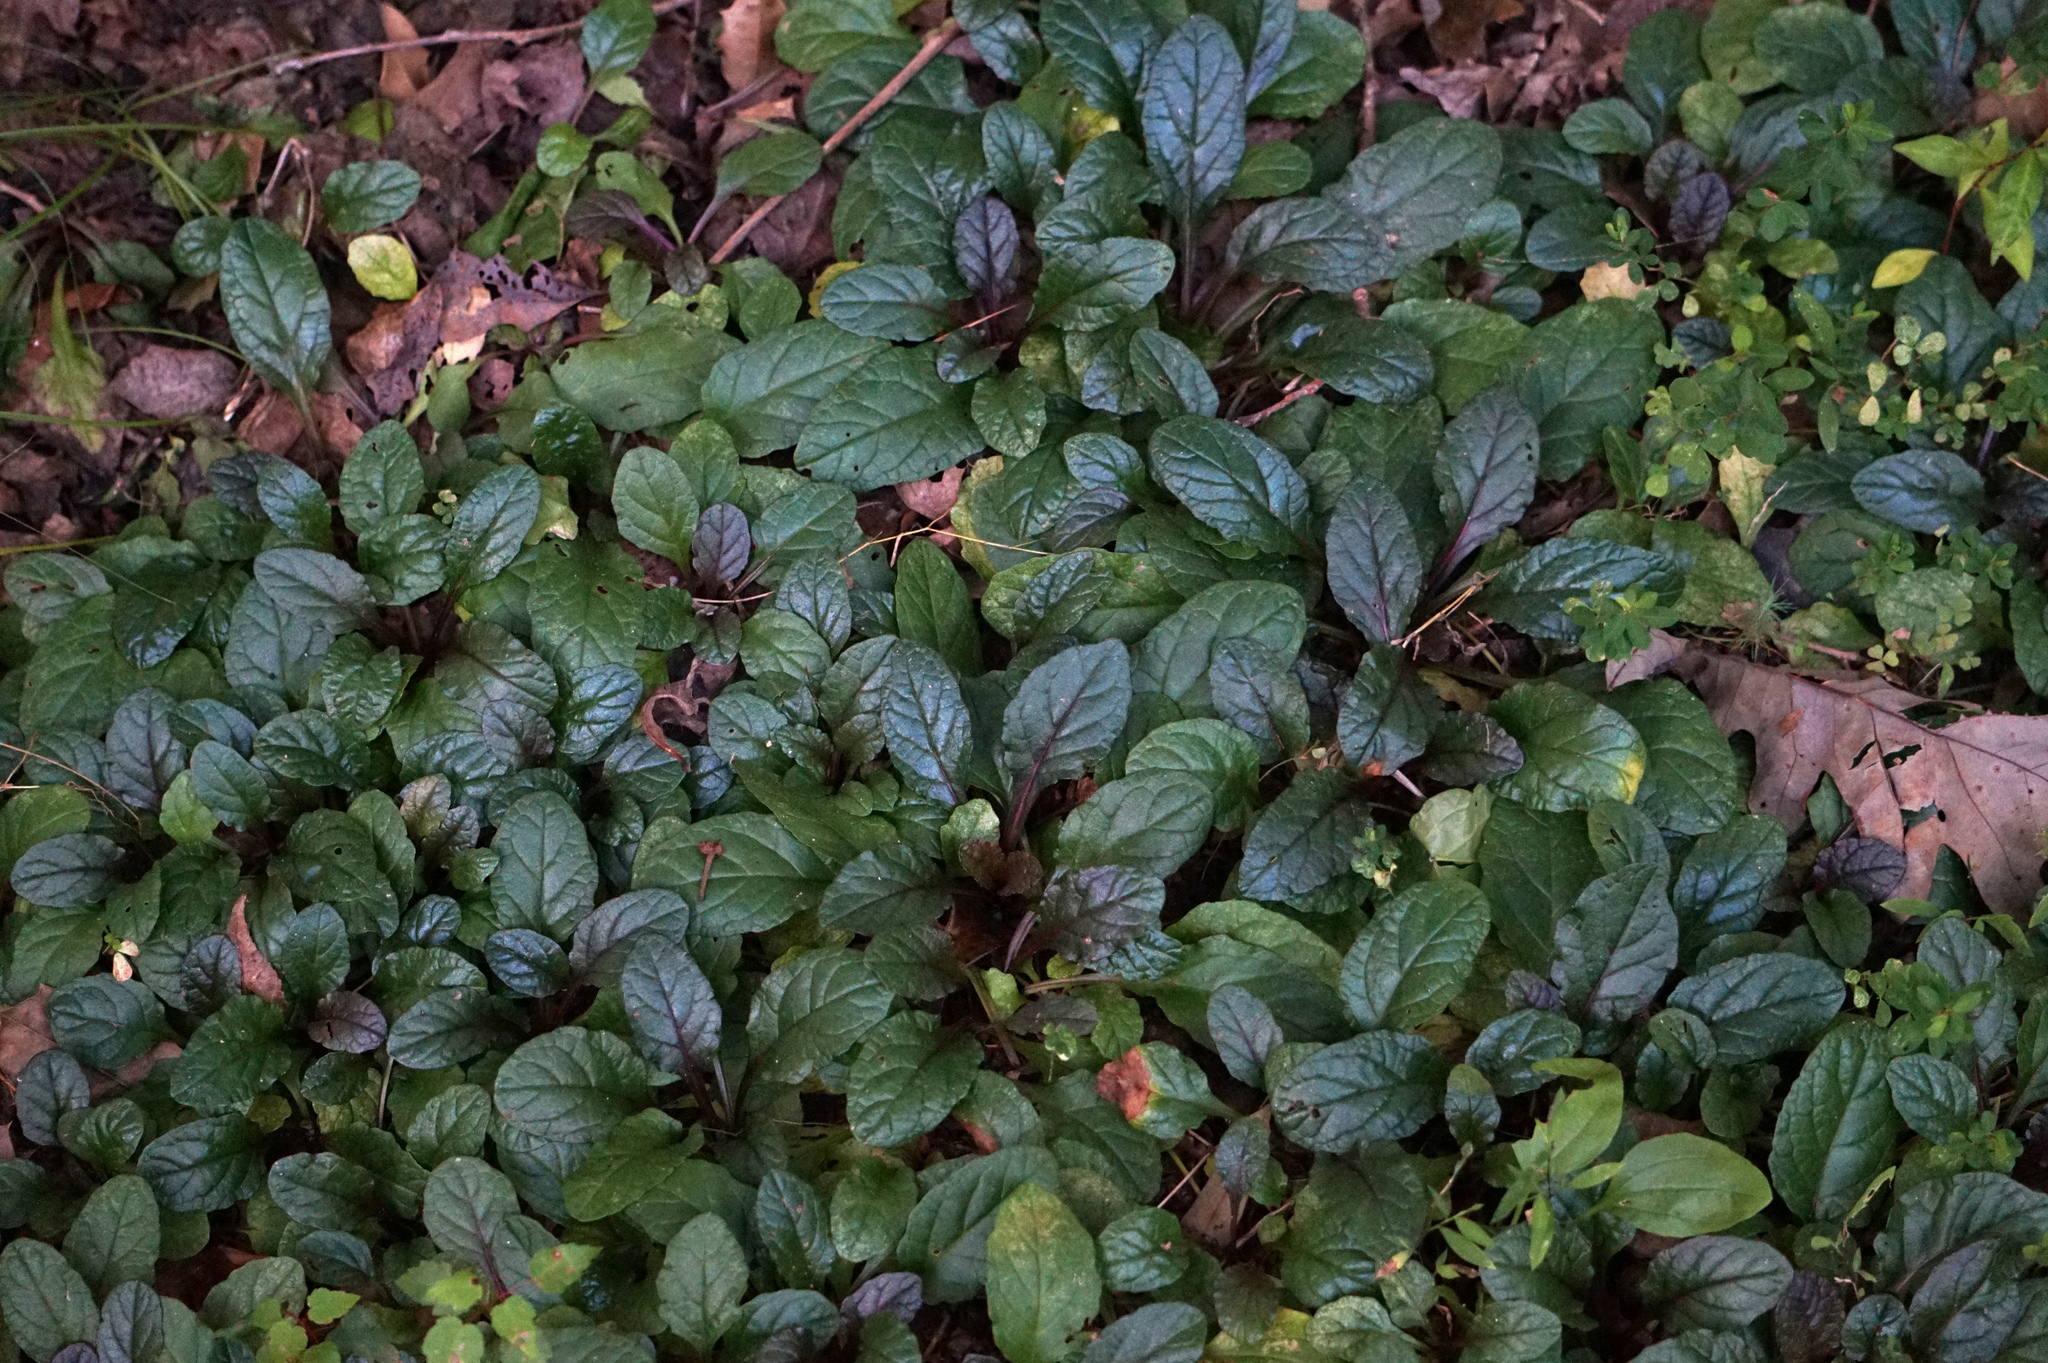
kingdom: Plantae
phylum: Tracheophyta
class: Magnoliopsida
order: Lamiales
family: Lamiaceae
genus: Ajuga
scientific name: Ajuga reptans
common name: Bugle
